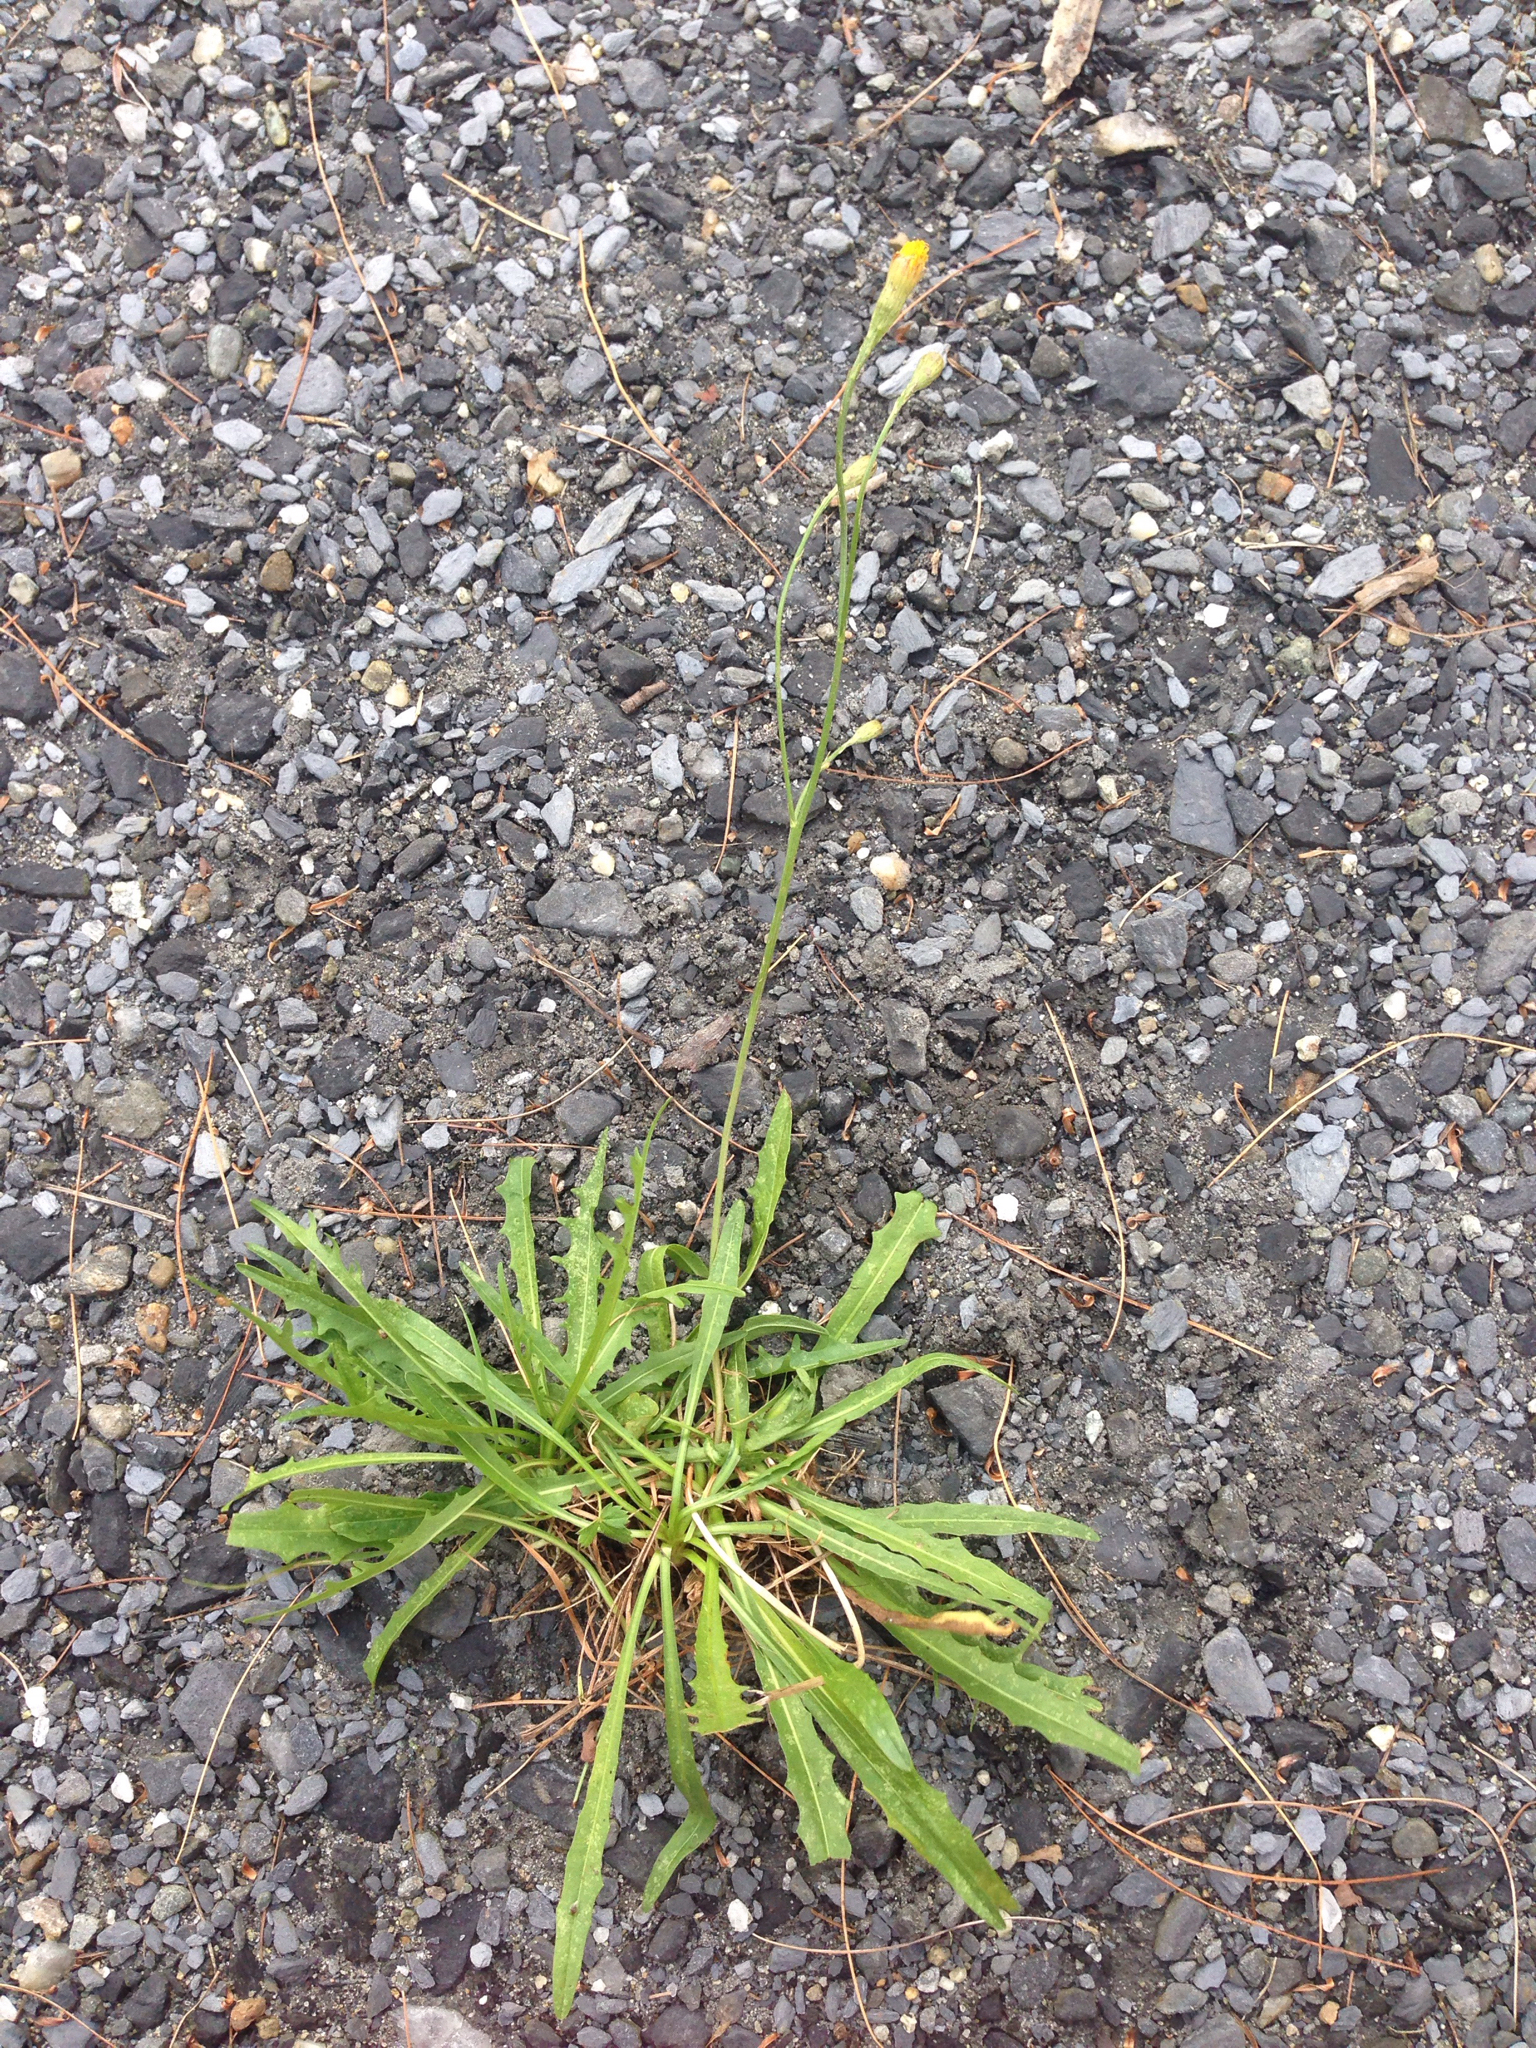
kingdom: Plantae
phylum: Tracheophyta
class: Magnoliopsida
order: Asterales
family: Asteraceae
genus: Scorzoneroides
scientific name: Scorzoneroides autumnalis
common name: Autumn hawkbit
